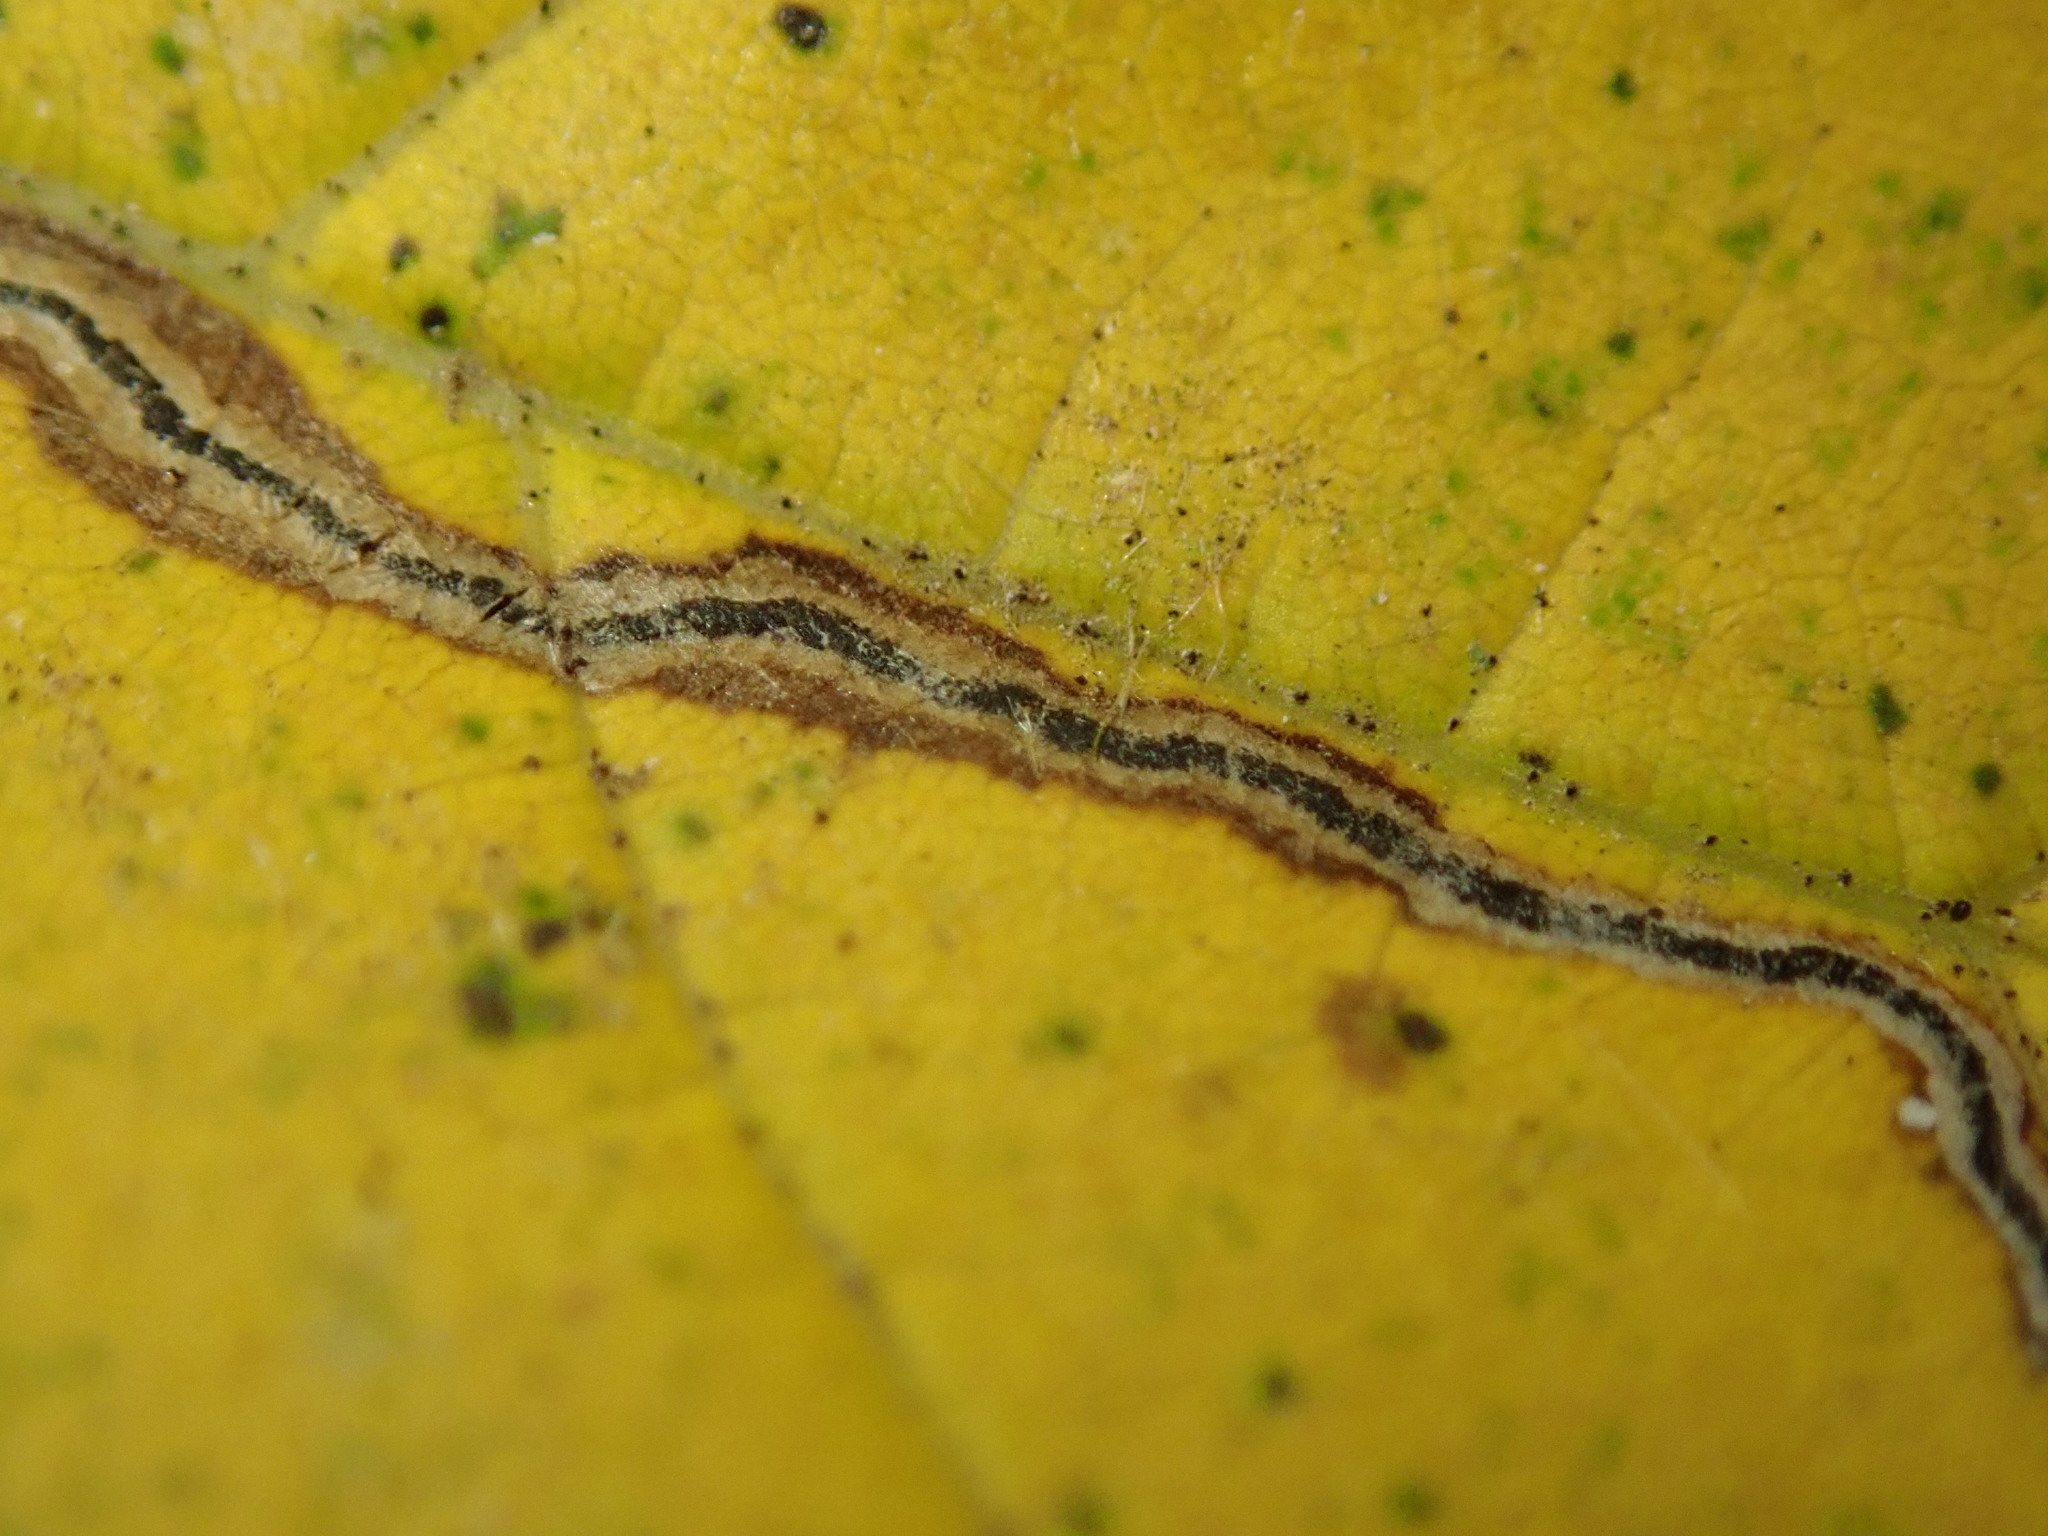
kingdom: Animalia
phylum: Arthropoda
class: Insecta
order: Lepidoptera
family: Nepticulidae
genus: Glaucolepis
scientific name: Glaucolepis saccharella
